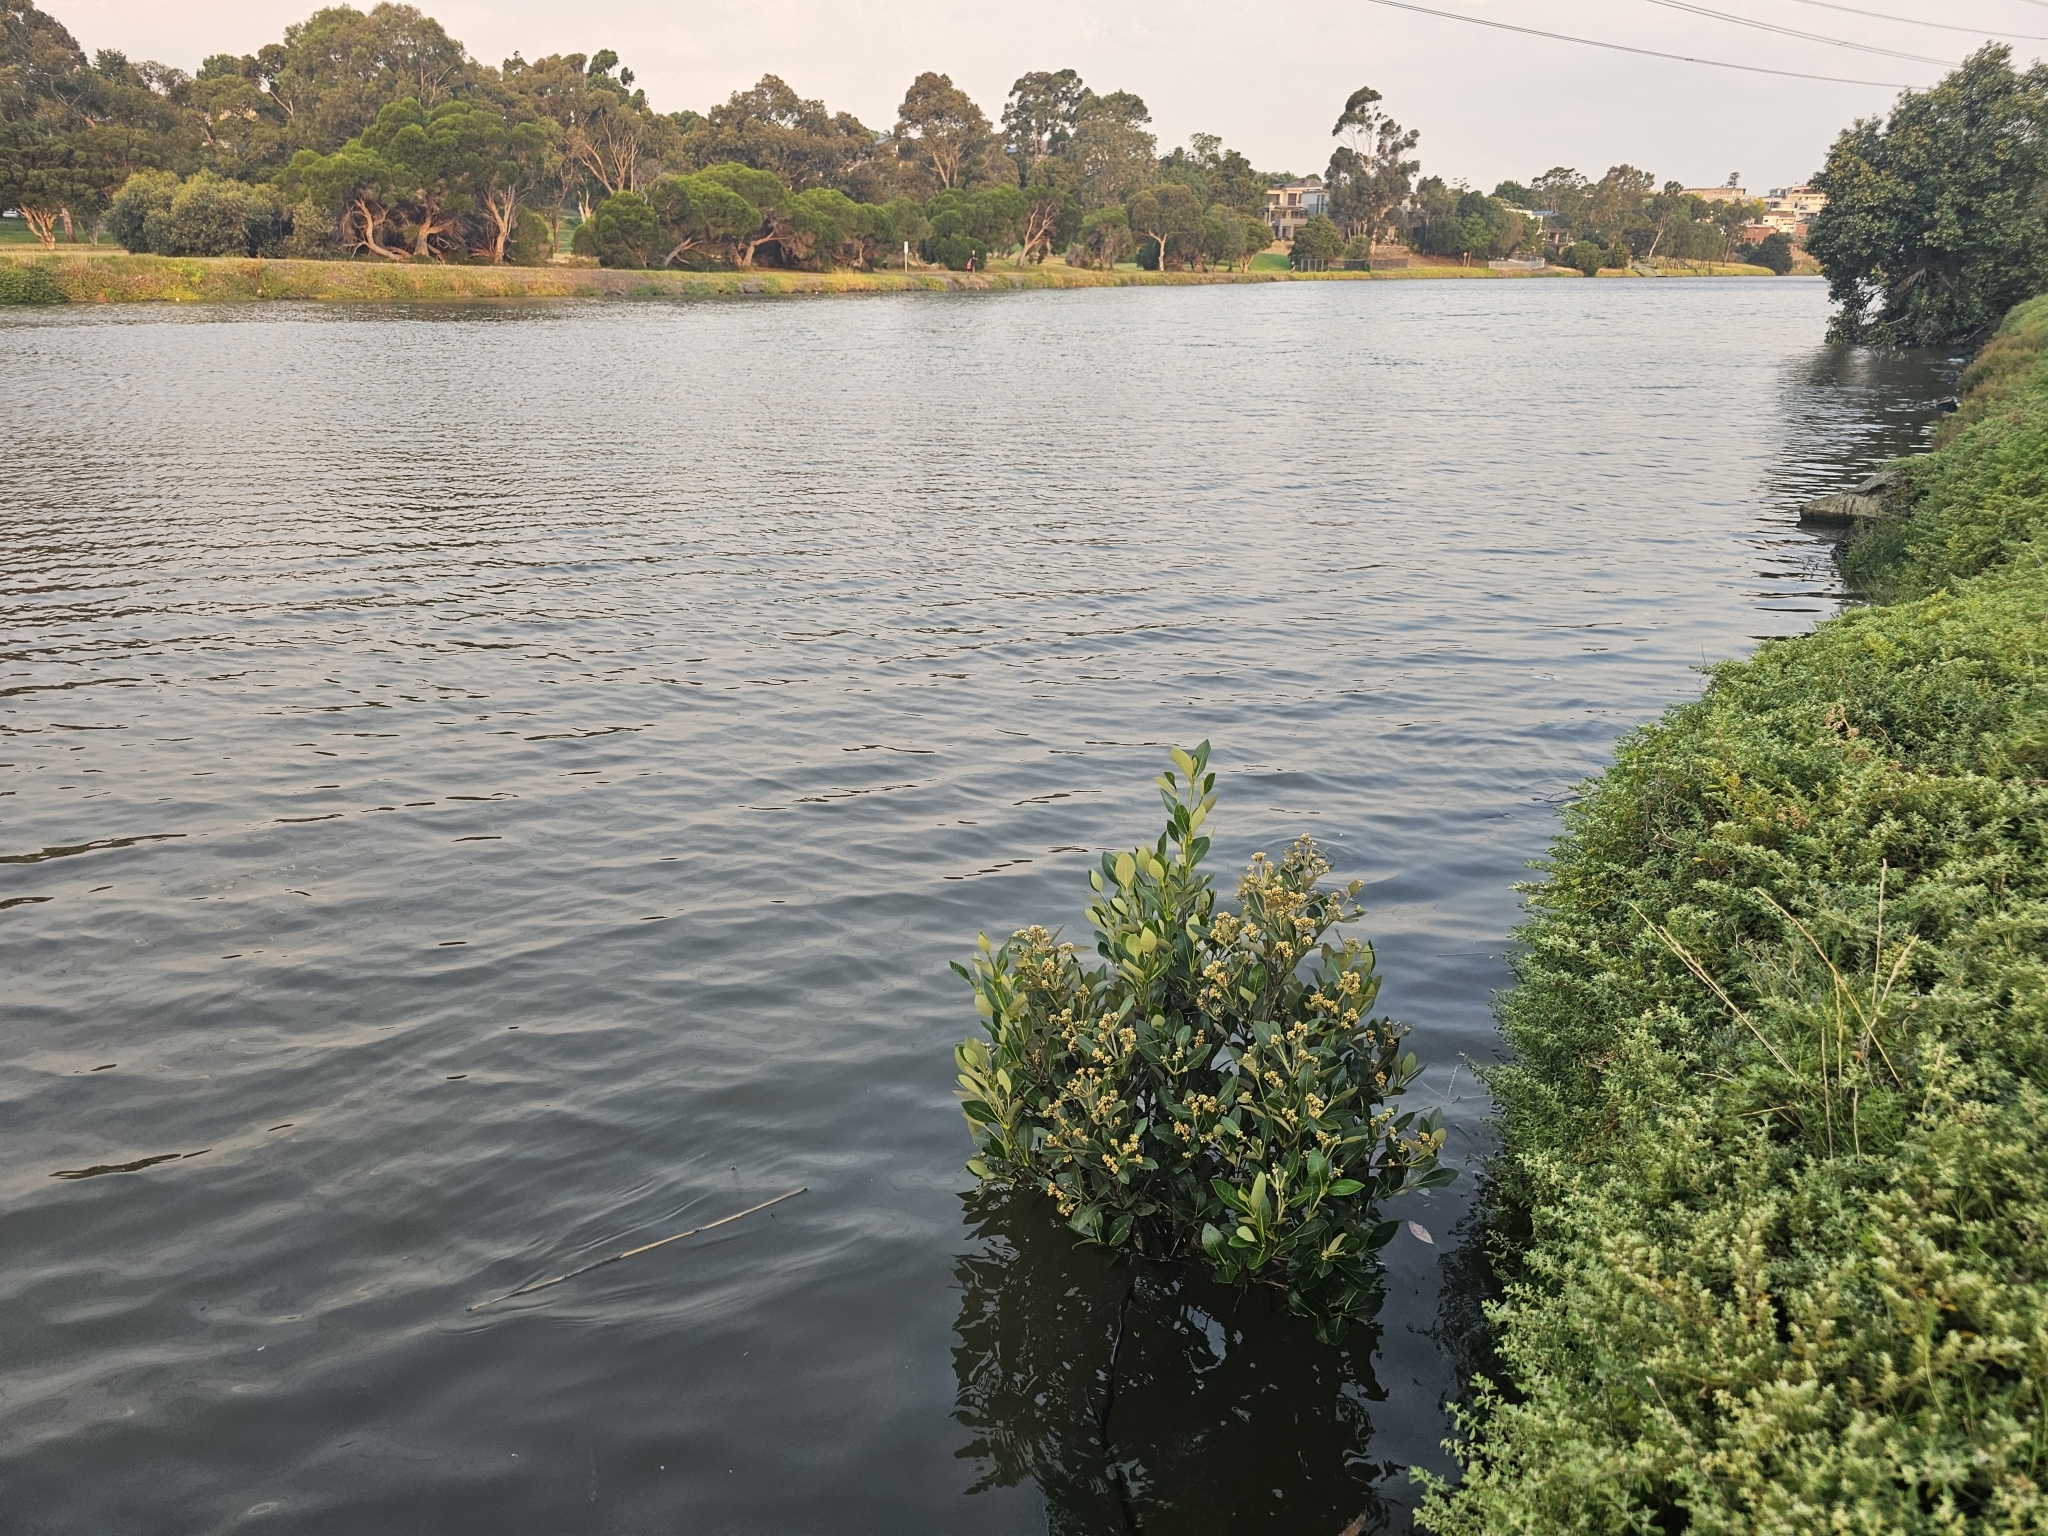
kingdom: Plantae
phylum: Tracheophyta
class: Magnoliopsida
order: Lamiales
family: Acanthaceae
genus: Avicennia
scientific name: Avicennia marina
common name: Gray mangrove
